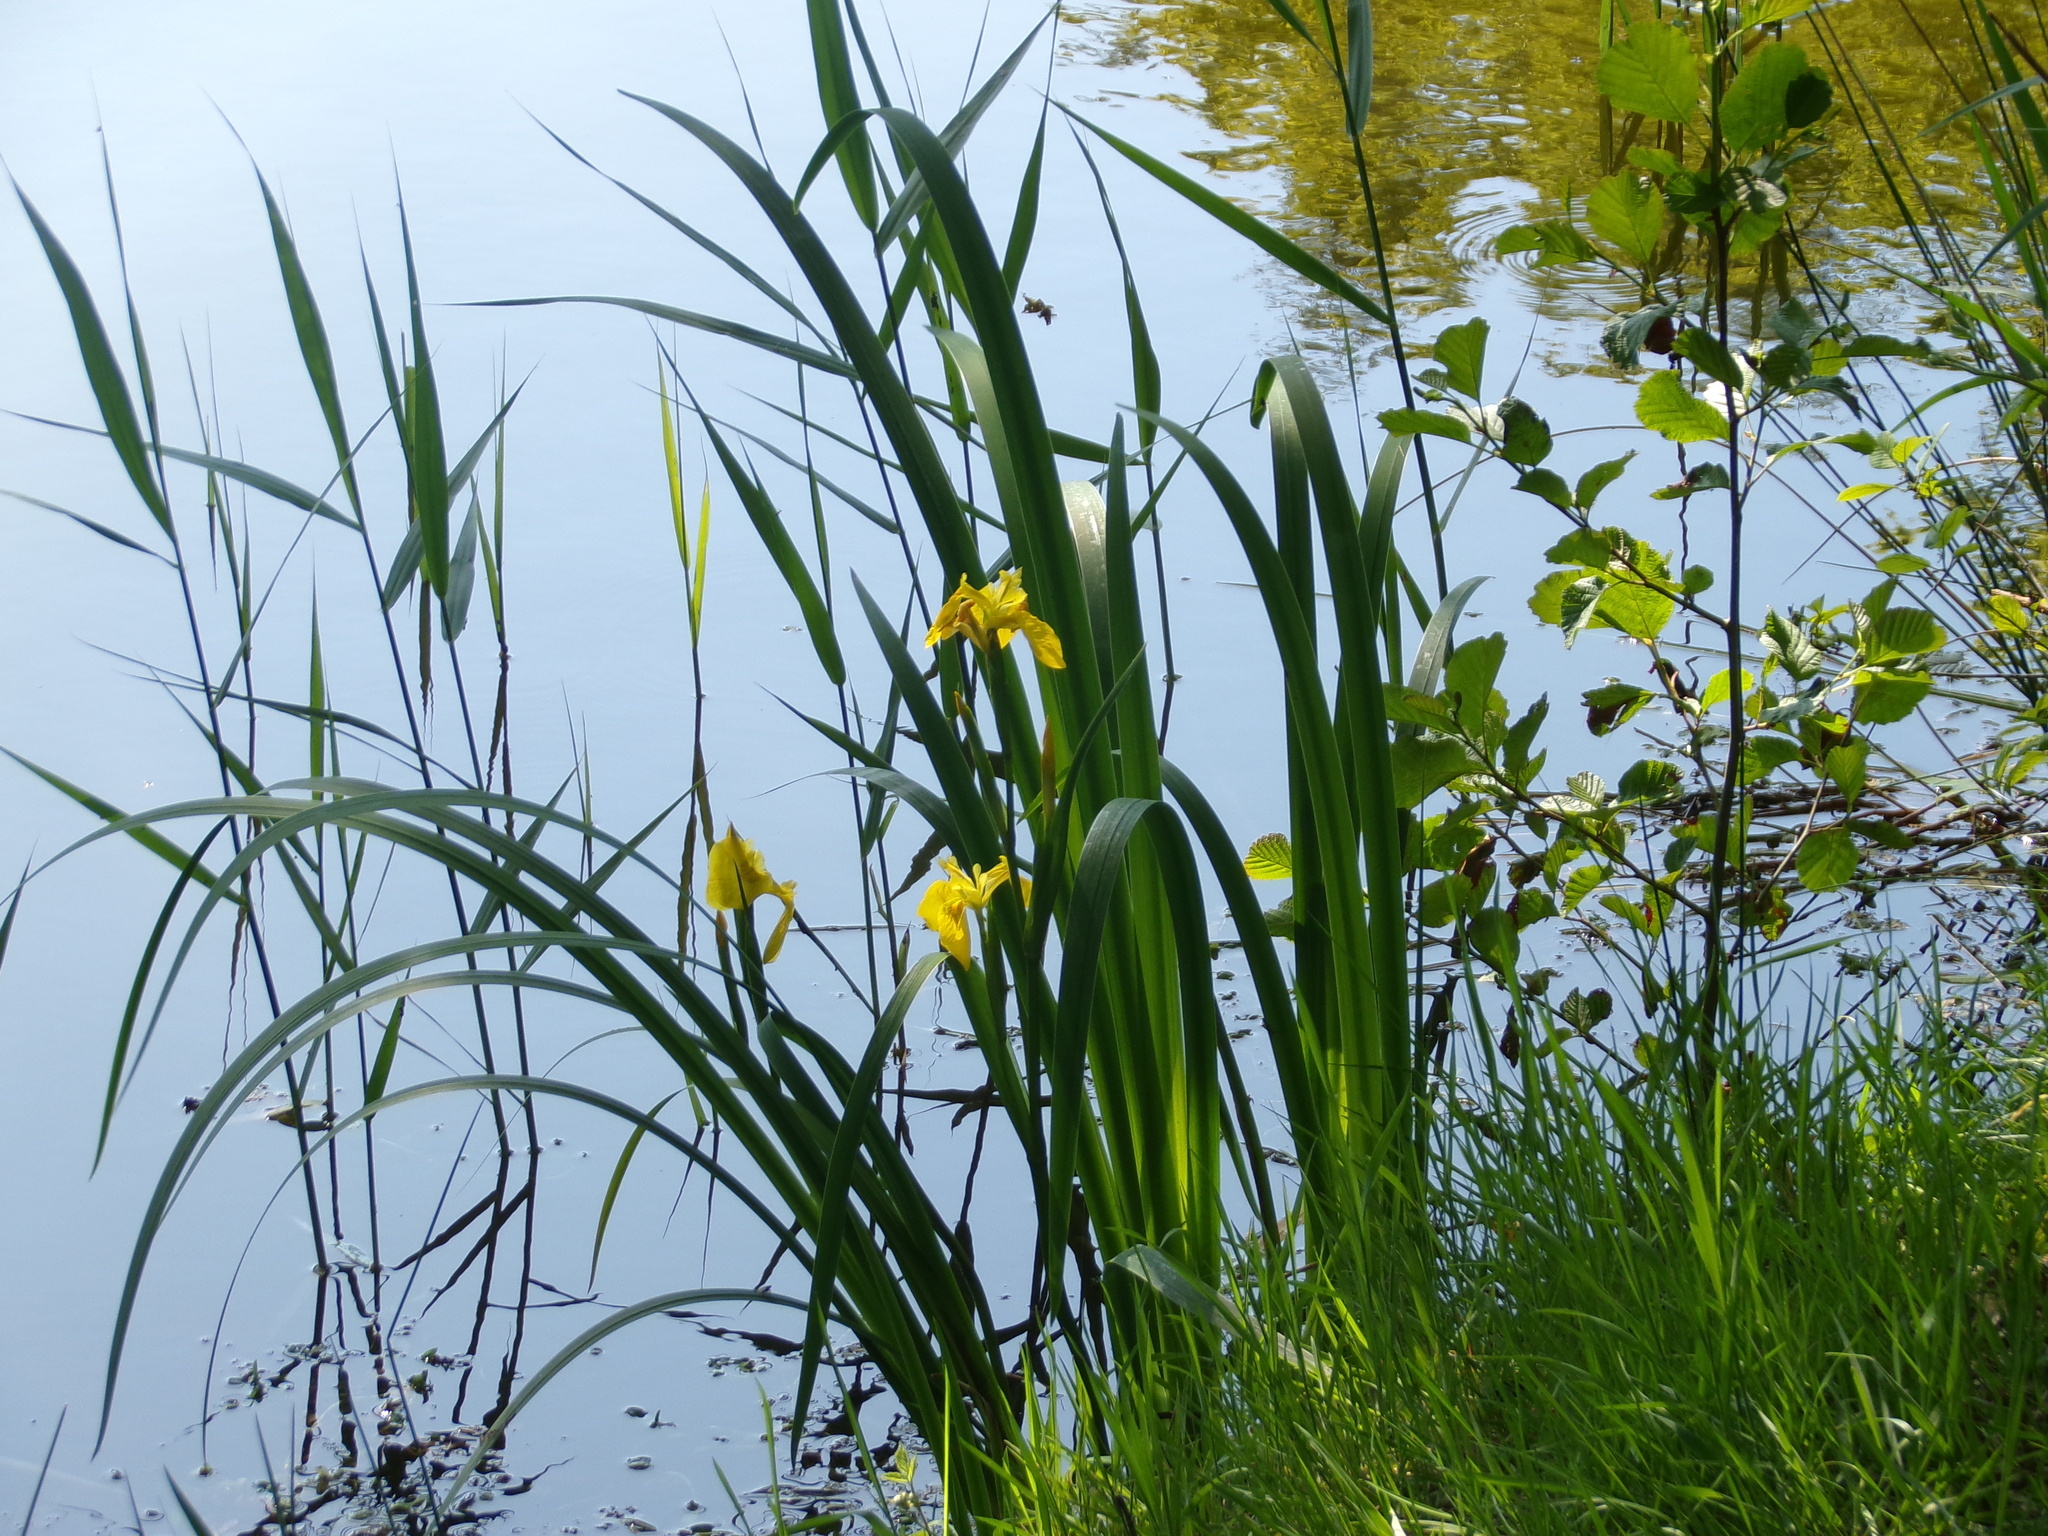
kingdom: Plantae
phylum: Tracheophyta
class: Liliopsida
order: Asparagales
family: Iridaceae
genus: Iris
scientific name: Iris pseudacorus
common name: Yellow flag
